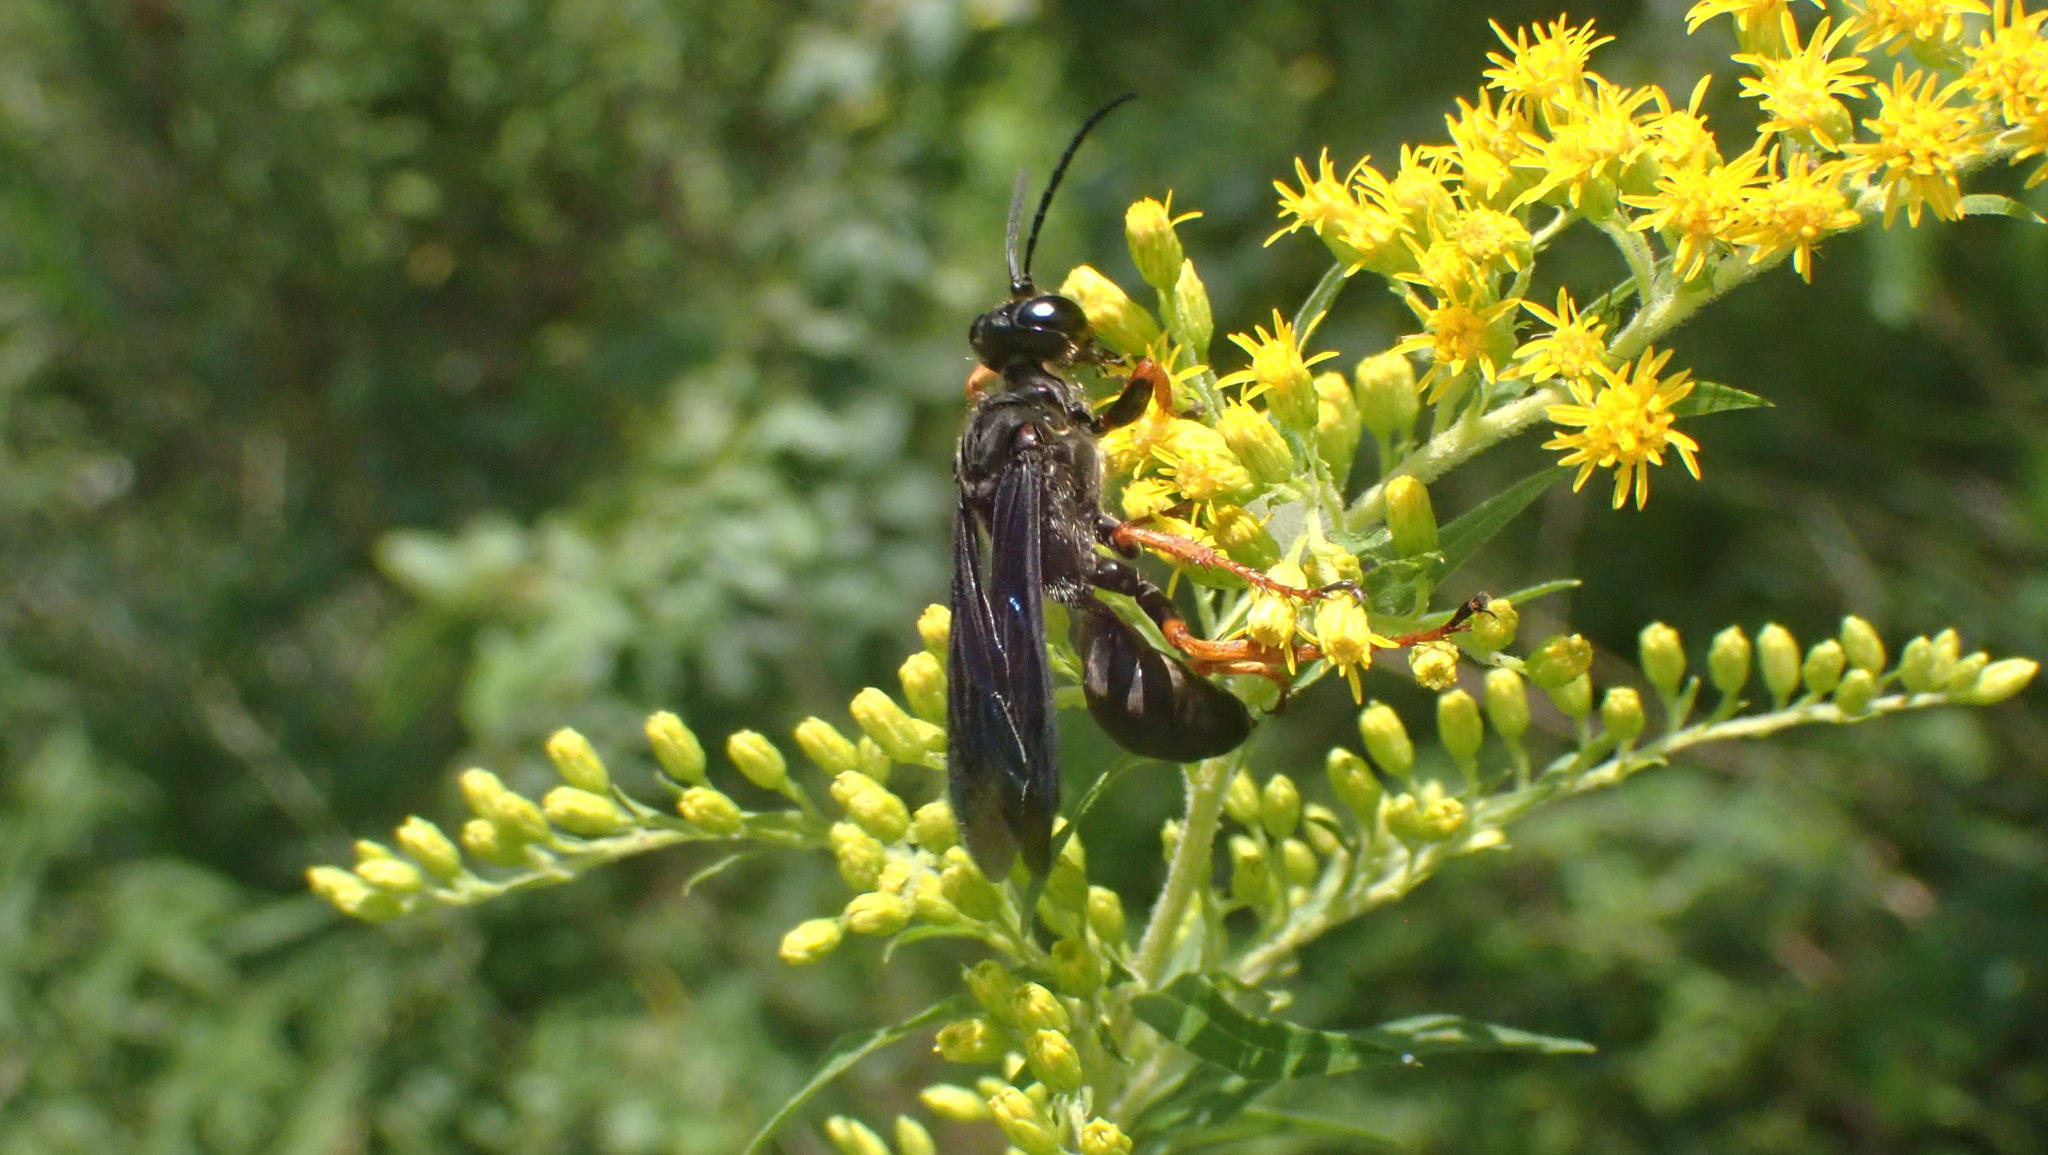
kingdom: Animalia
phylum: Arthropoda
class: Insecta
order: Hymenoptera
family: Sphecidae
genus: Sphex
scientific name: Sphex nudus
